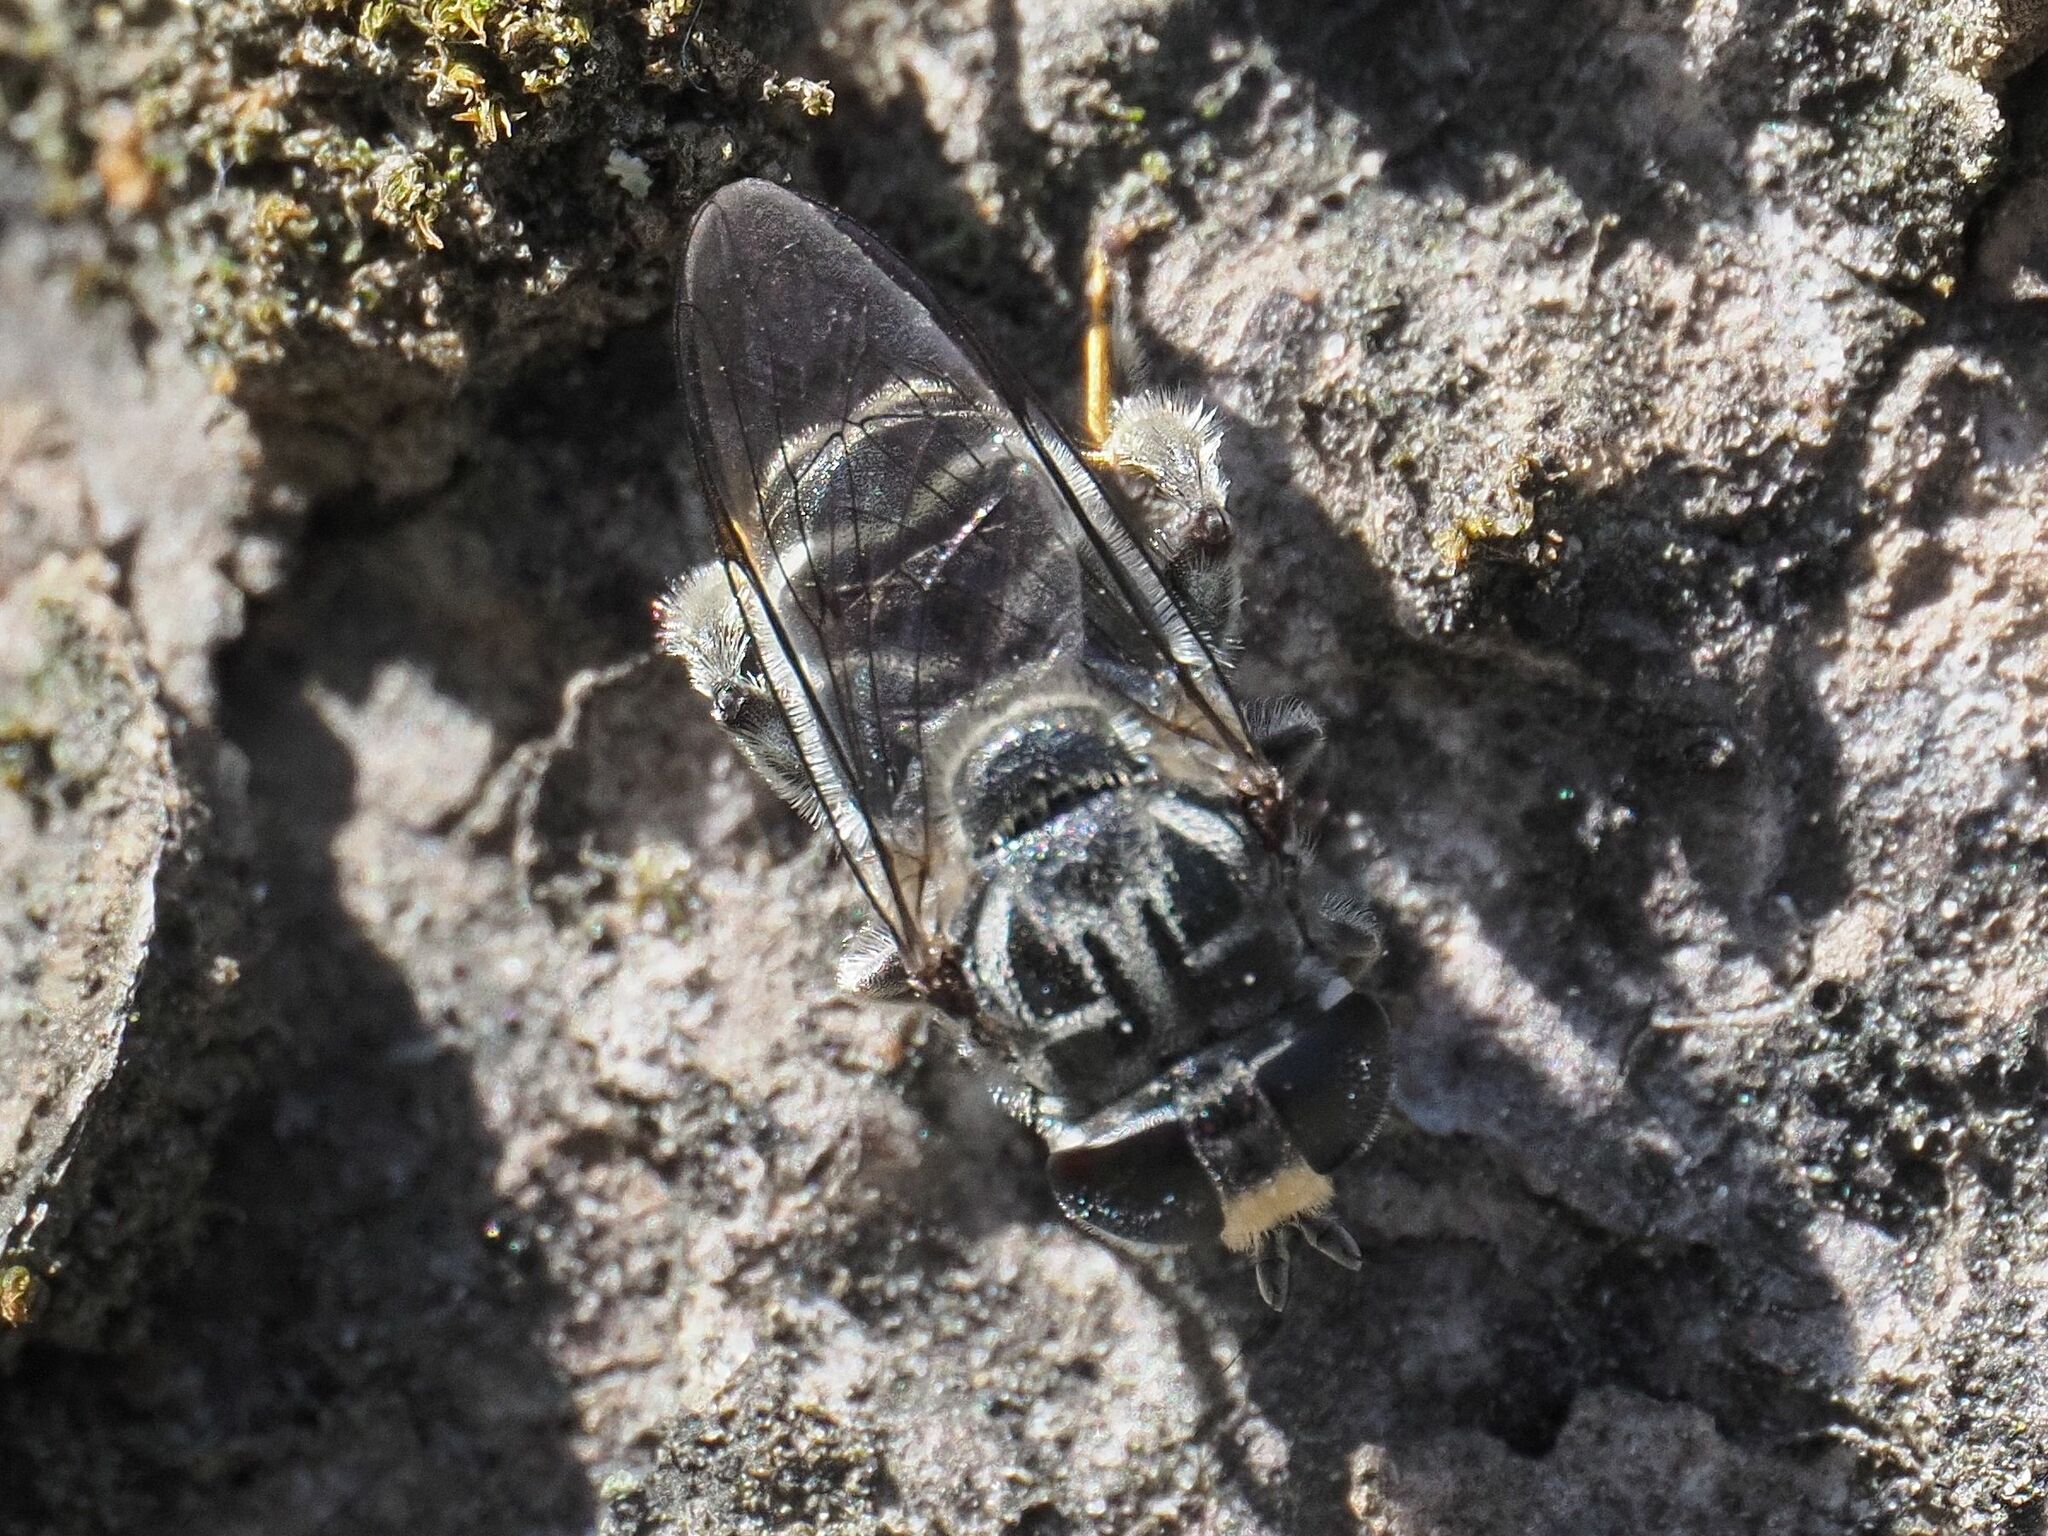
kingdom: Animalia
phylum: Arthropoda
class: Insecta
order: Diptera
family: Syrphidae
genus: Eumerus
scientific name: Eumerus obliquus
